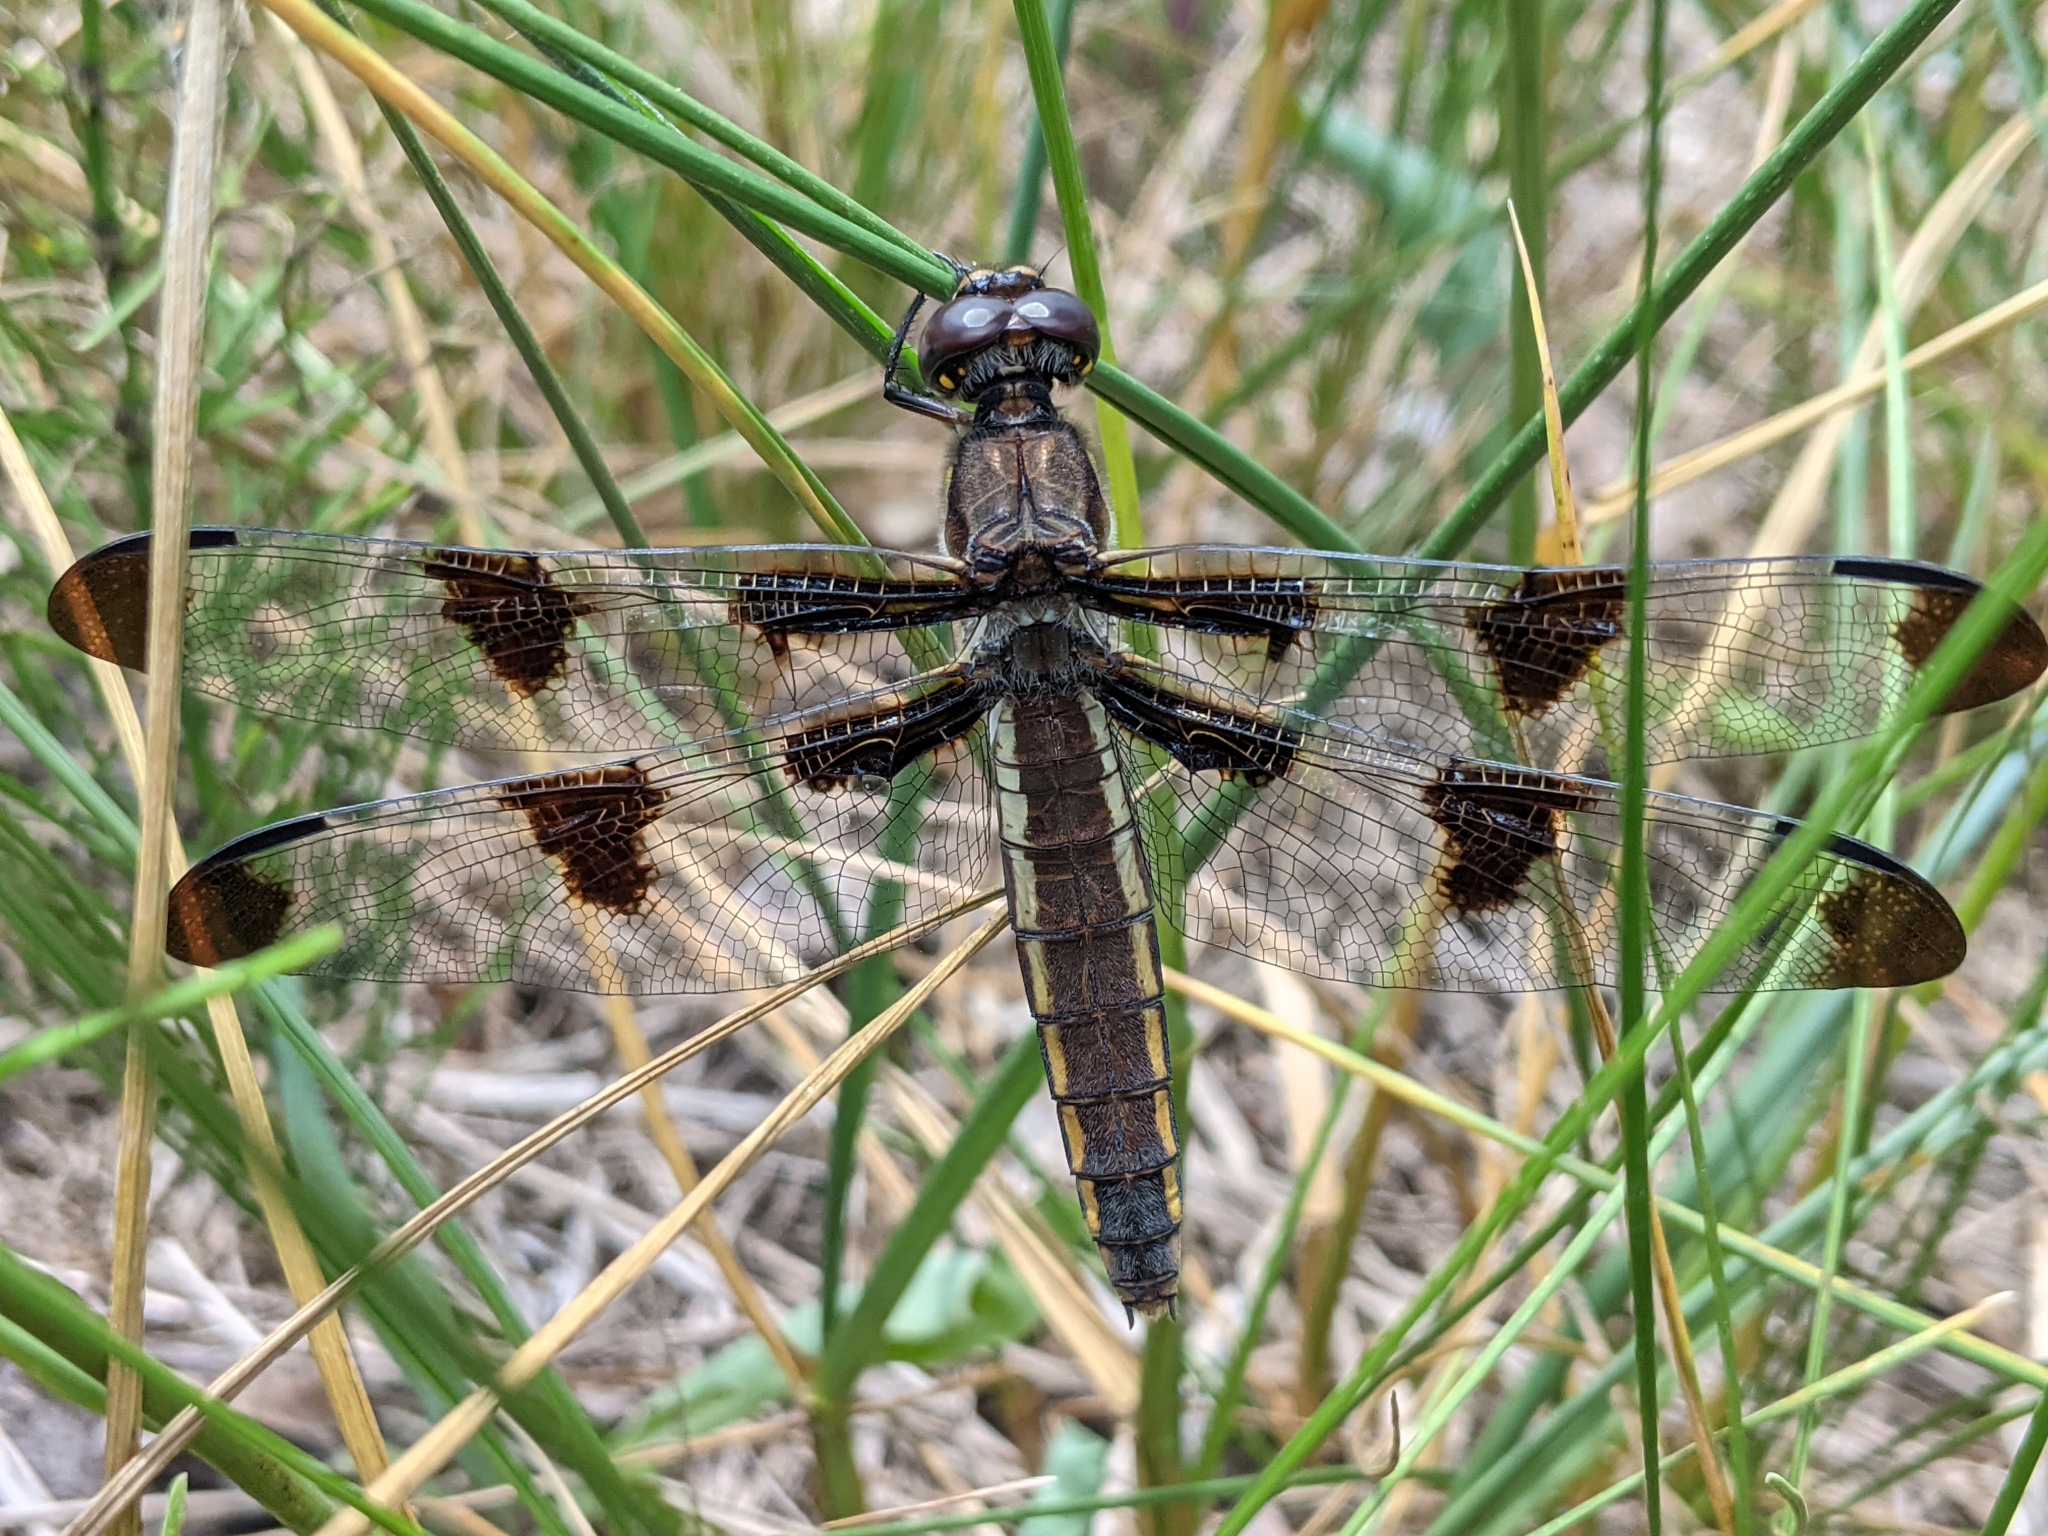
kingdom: Animalia
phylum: Arthropoda
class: Insecta
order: Odonata
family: Libellulidae
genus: Libellula
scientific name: Libellula pulchella
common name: Twelve-spotted skimmer
